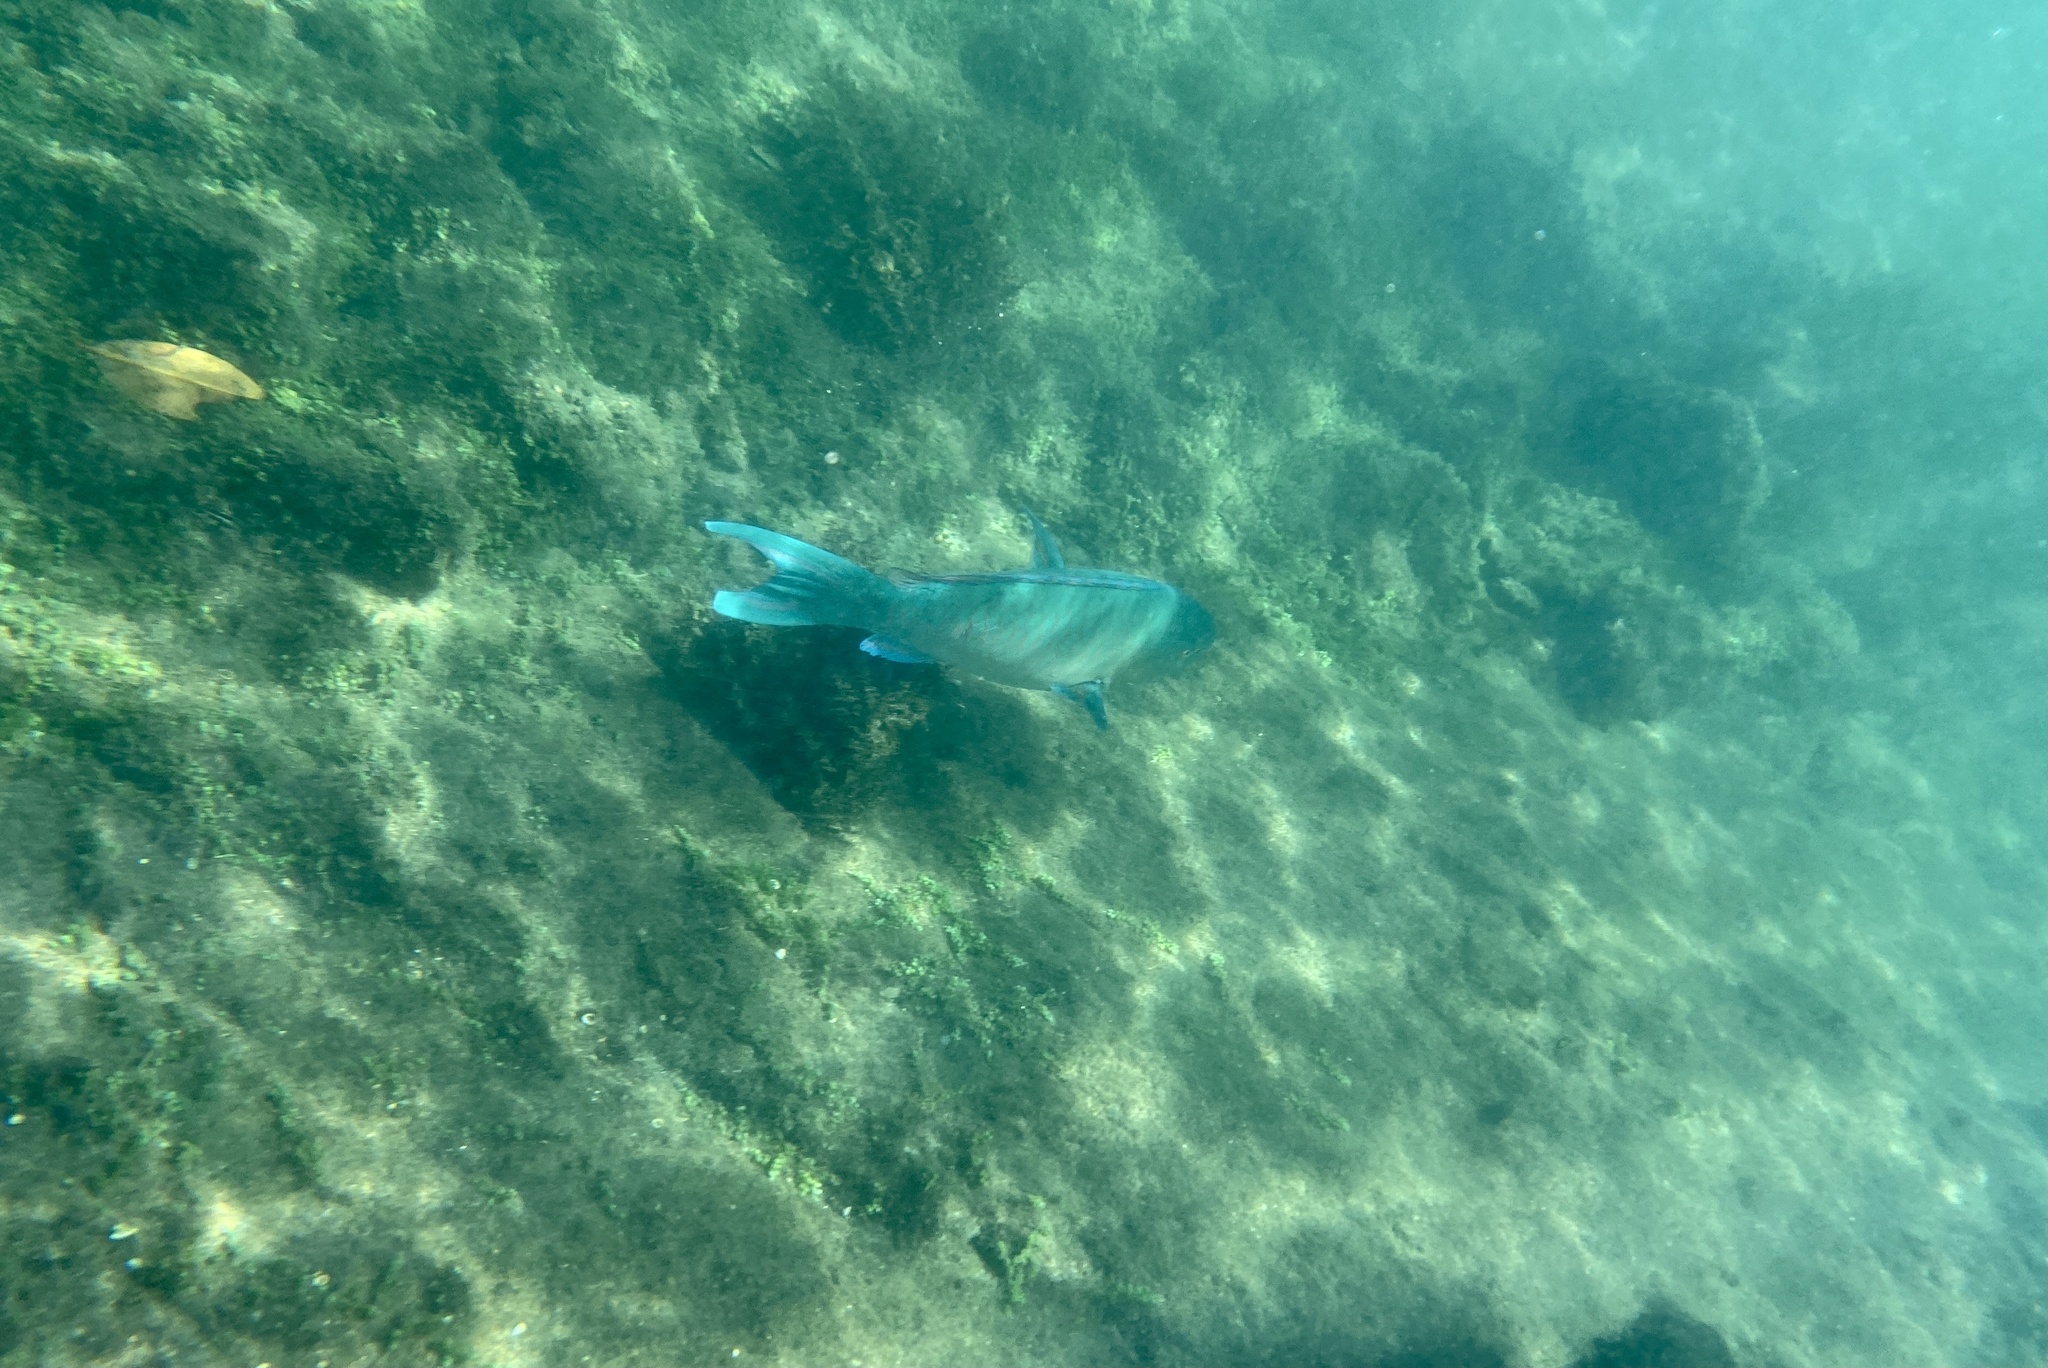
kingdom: Animalia
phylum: Chordata
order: Perciformes
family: Scaridae
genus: Scarus
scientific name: Scarus ghobban
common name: Blue-barred parrotfish
